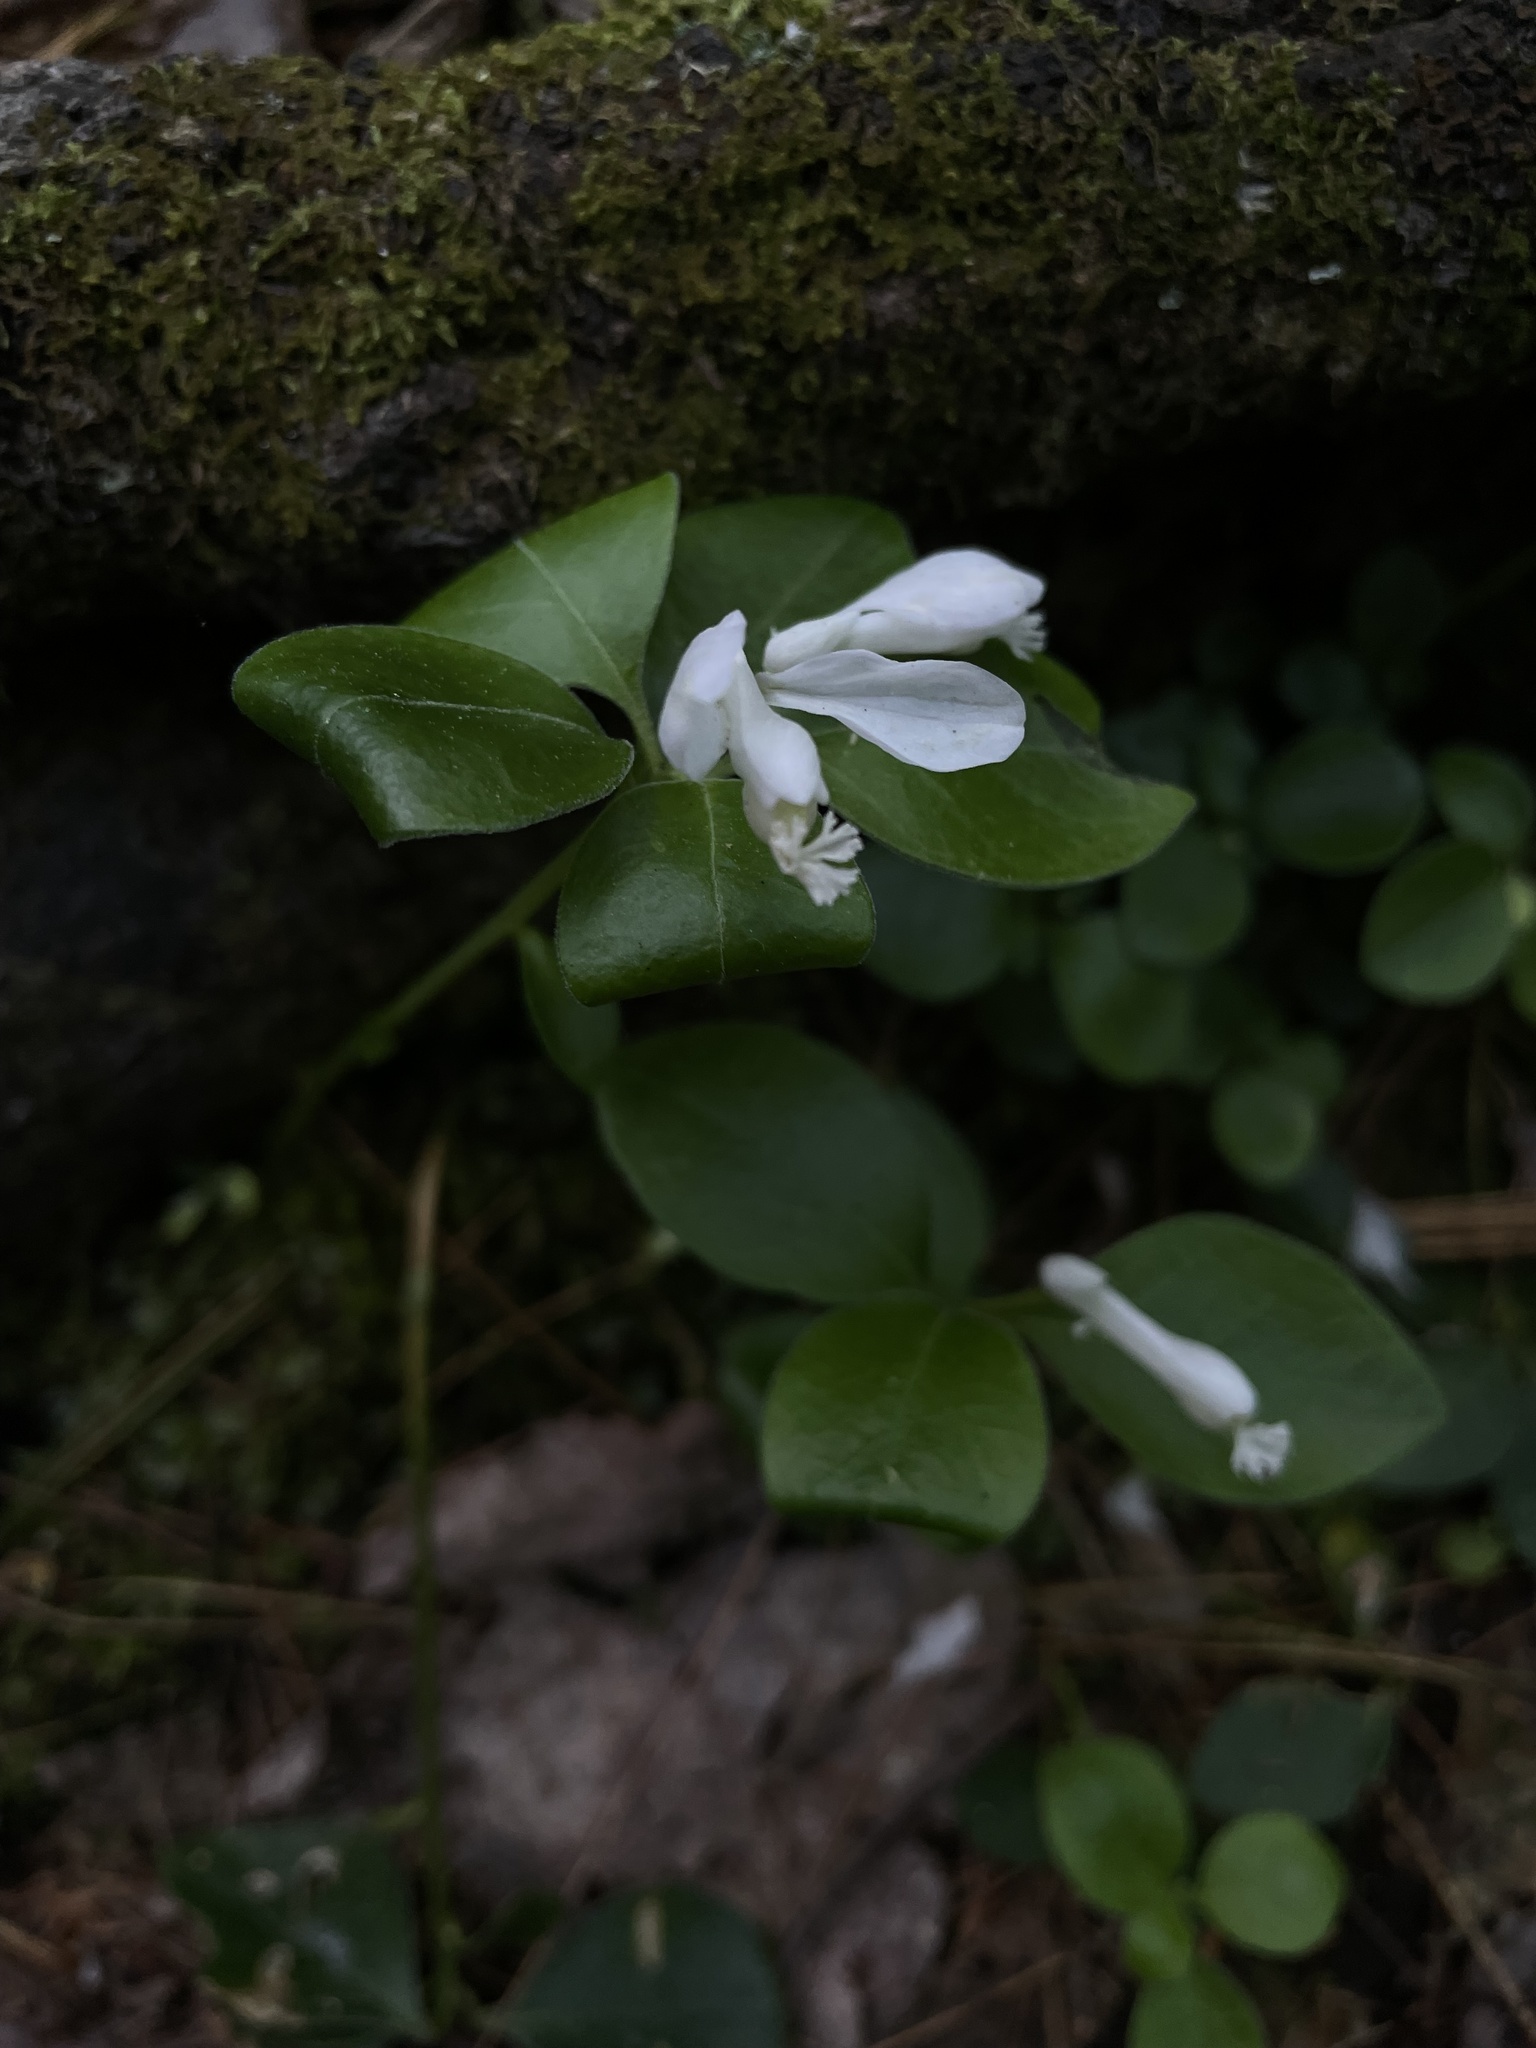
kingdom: Plantae
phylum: Tracheophyta
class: Magnoliopsida
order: Fabales
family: Polygalaceae
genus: Polygaloides
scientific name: Polygaloides paucifolia
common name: Bird-on-the-wing
